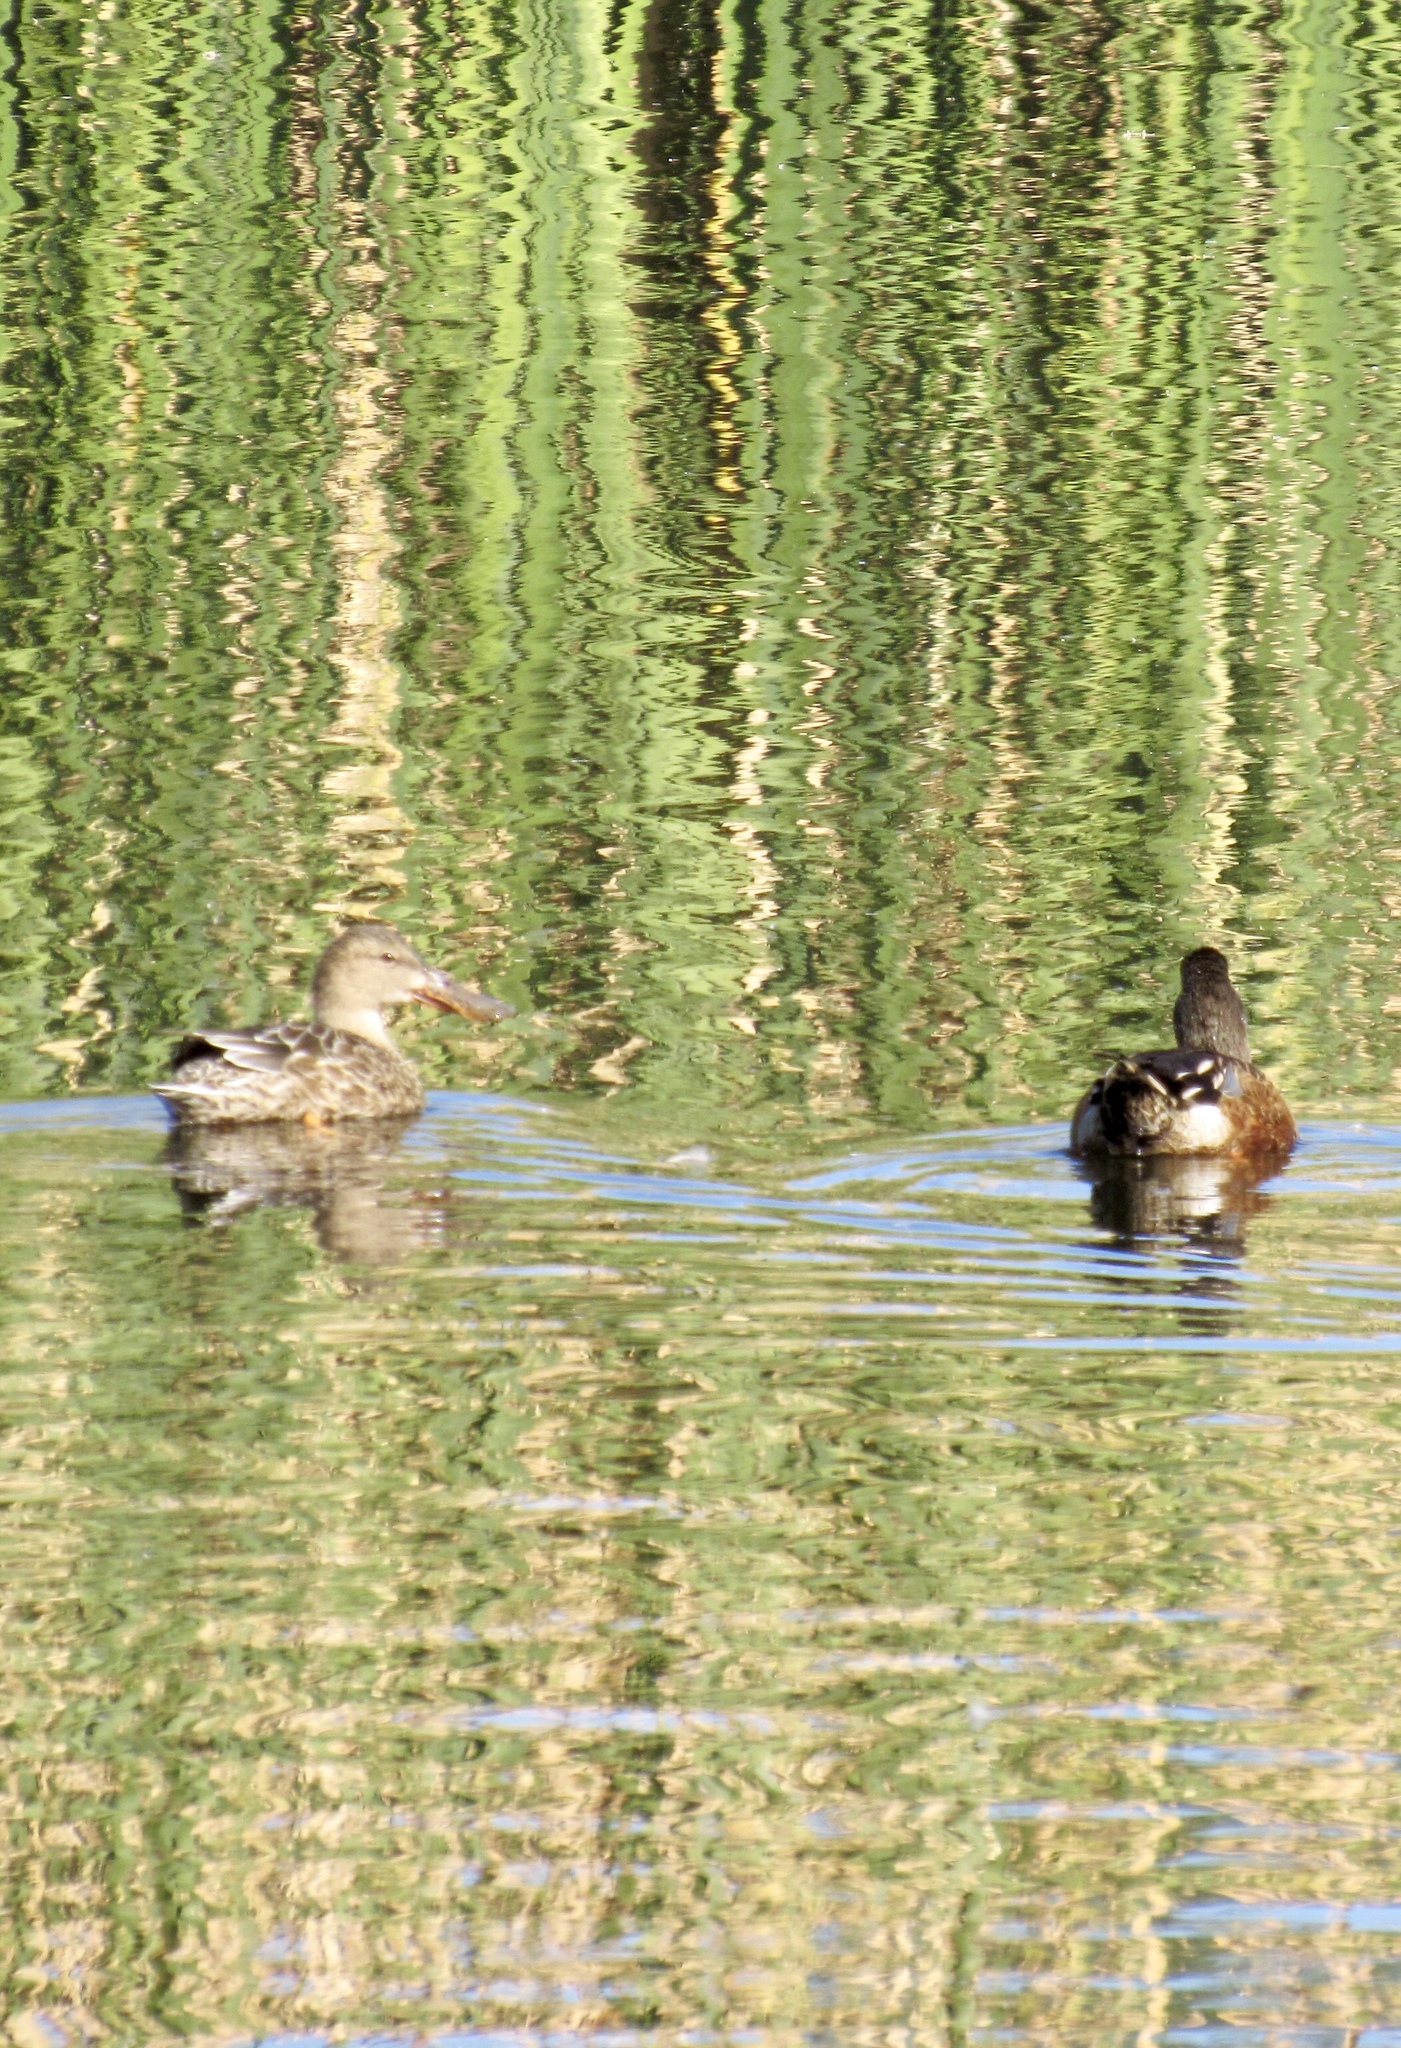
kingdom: Animalia
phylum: Chordata
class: Aves
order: Anseriformes
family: Anatidae
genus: Spatula
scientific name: Spatula clypeata
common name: Northern shoveler
